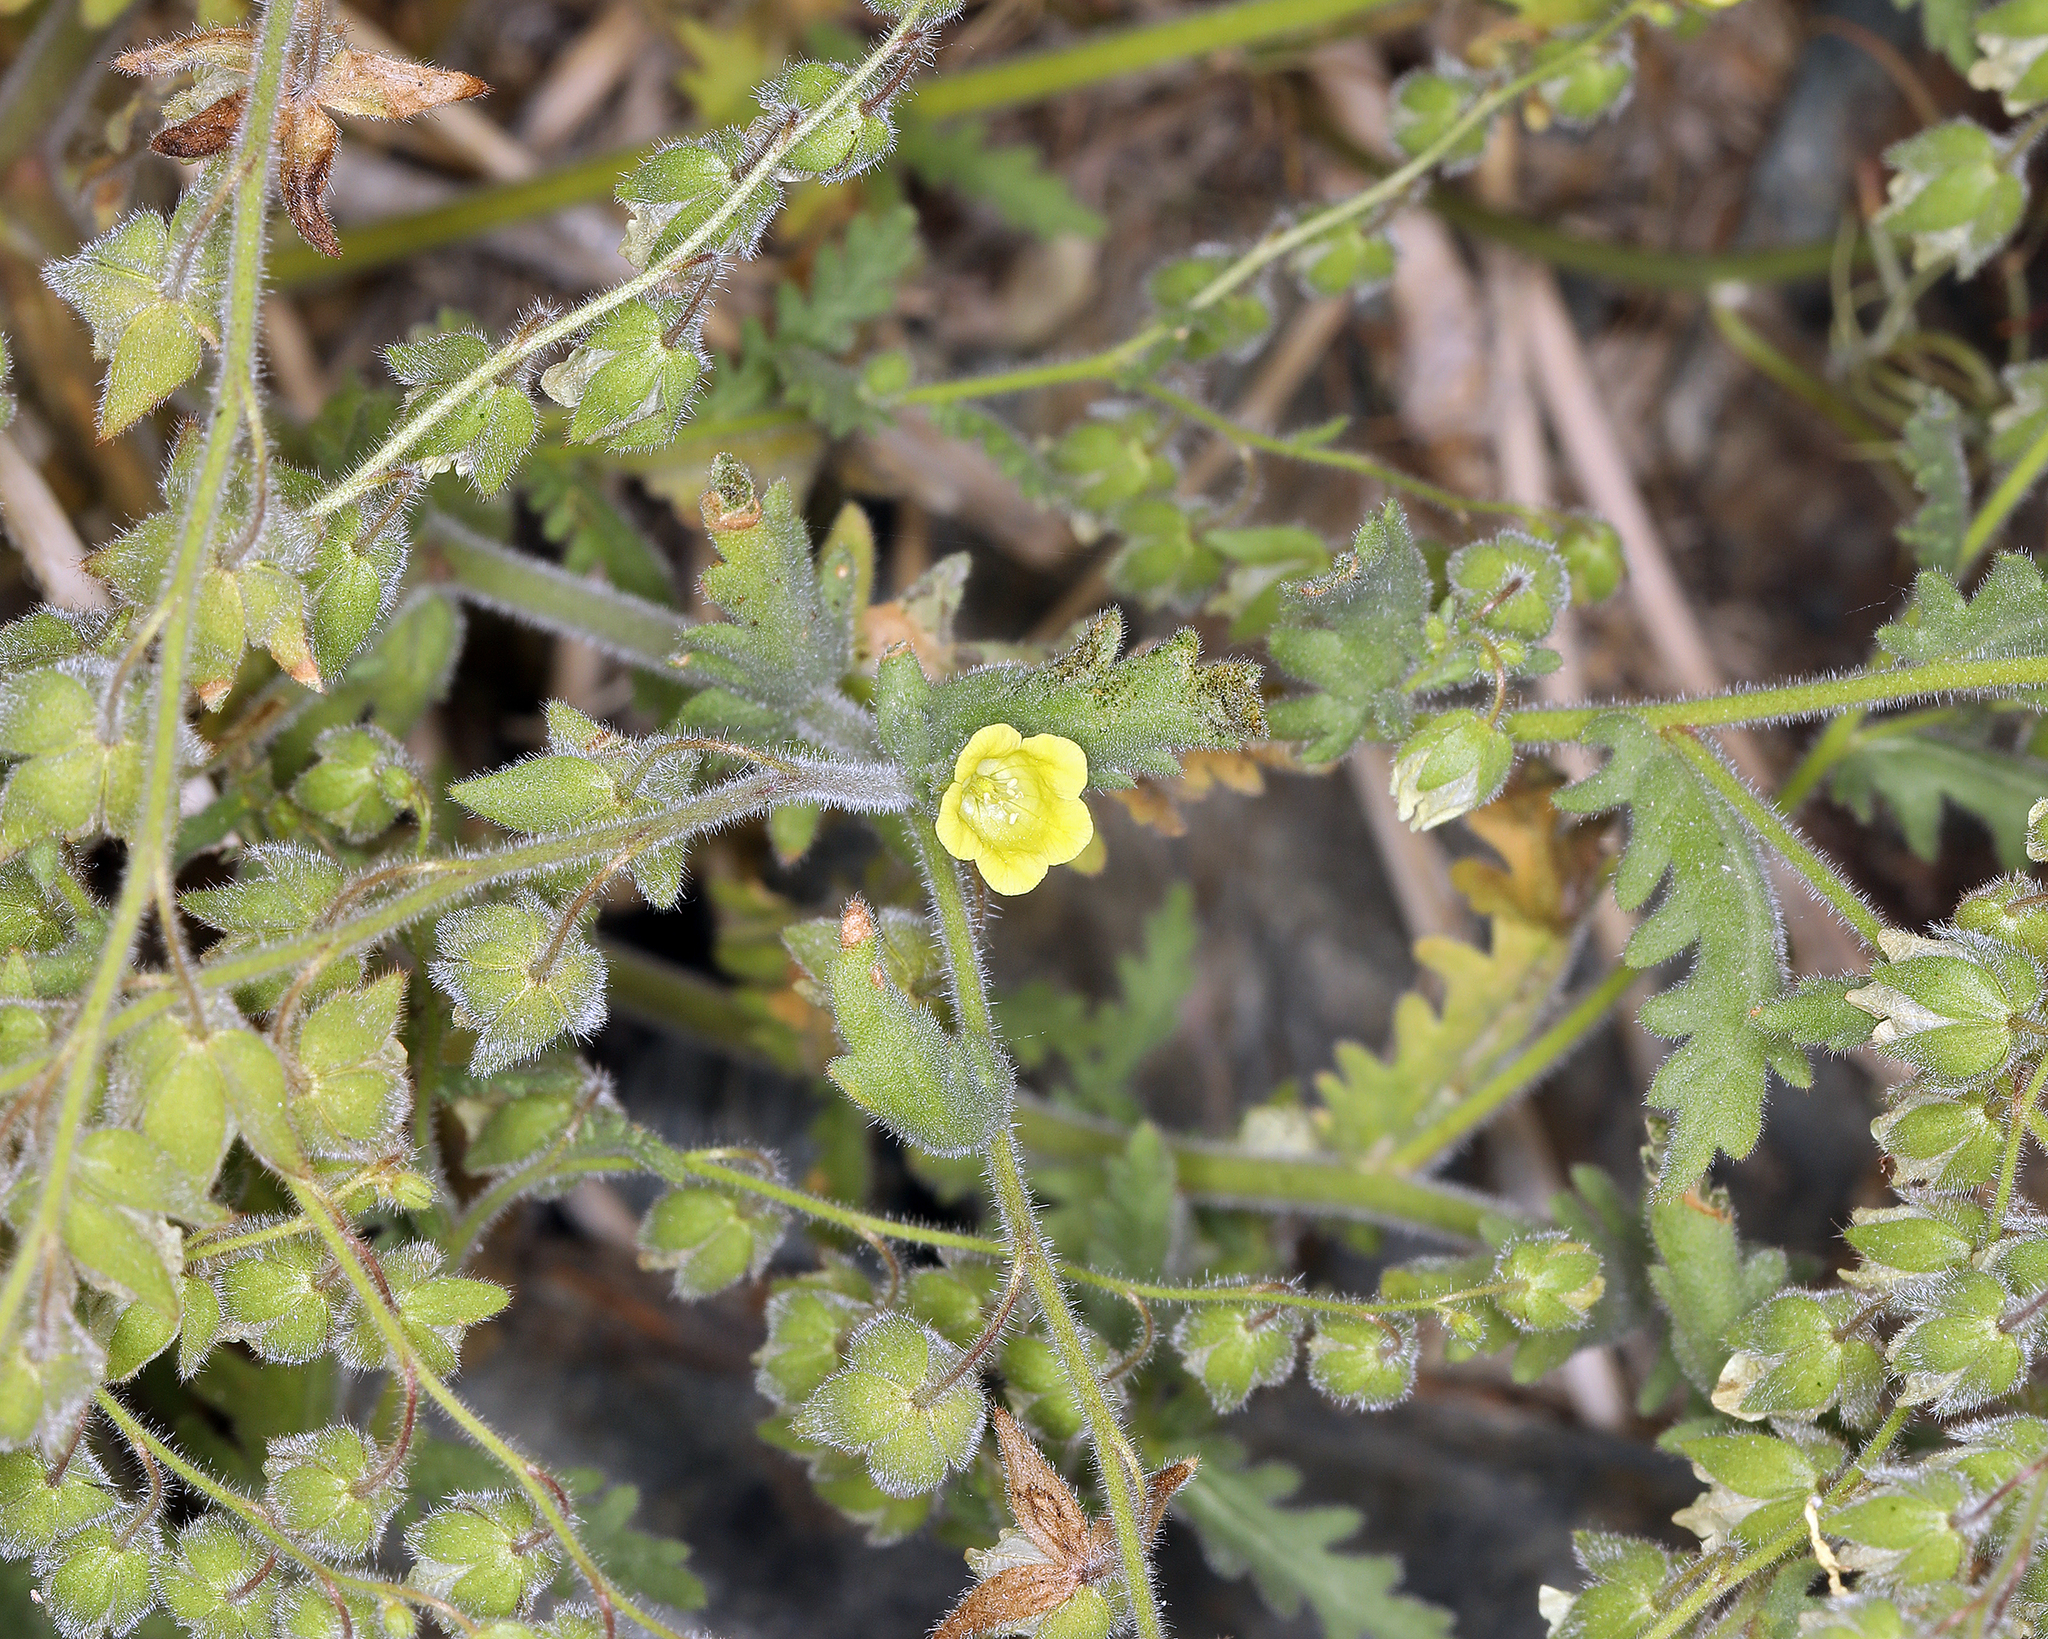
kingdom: Plantae
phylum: Tracheophyta
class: Magnoliopsida
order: Boraginales
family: Hydrophyllaceae
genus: Emmenanthe
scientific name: Emmenanthe penduliflora
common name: Whispering-bells
